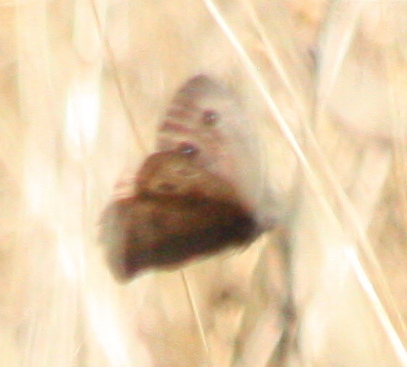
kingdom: Animalia
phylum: Arthropoda
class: Insecta
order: Lepidoptera
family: Nymphalidae
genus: Cercyonis
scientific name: Cercyonis pegala
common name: Common wood-nymph
